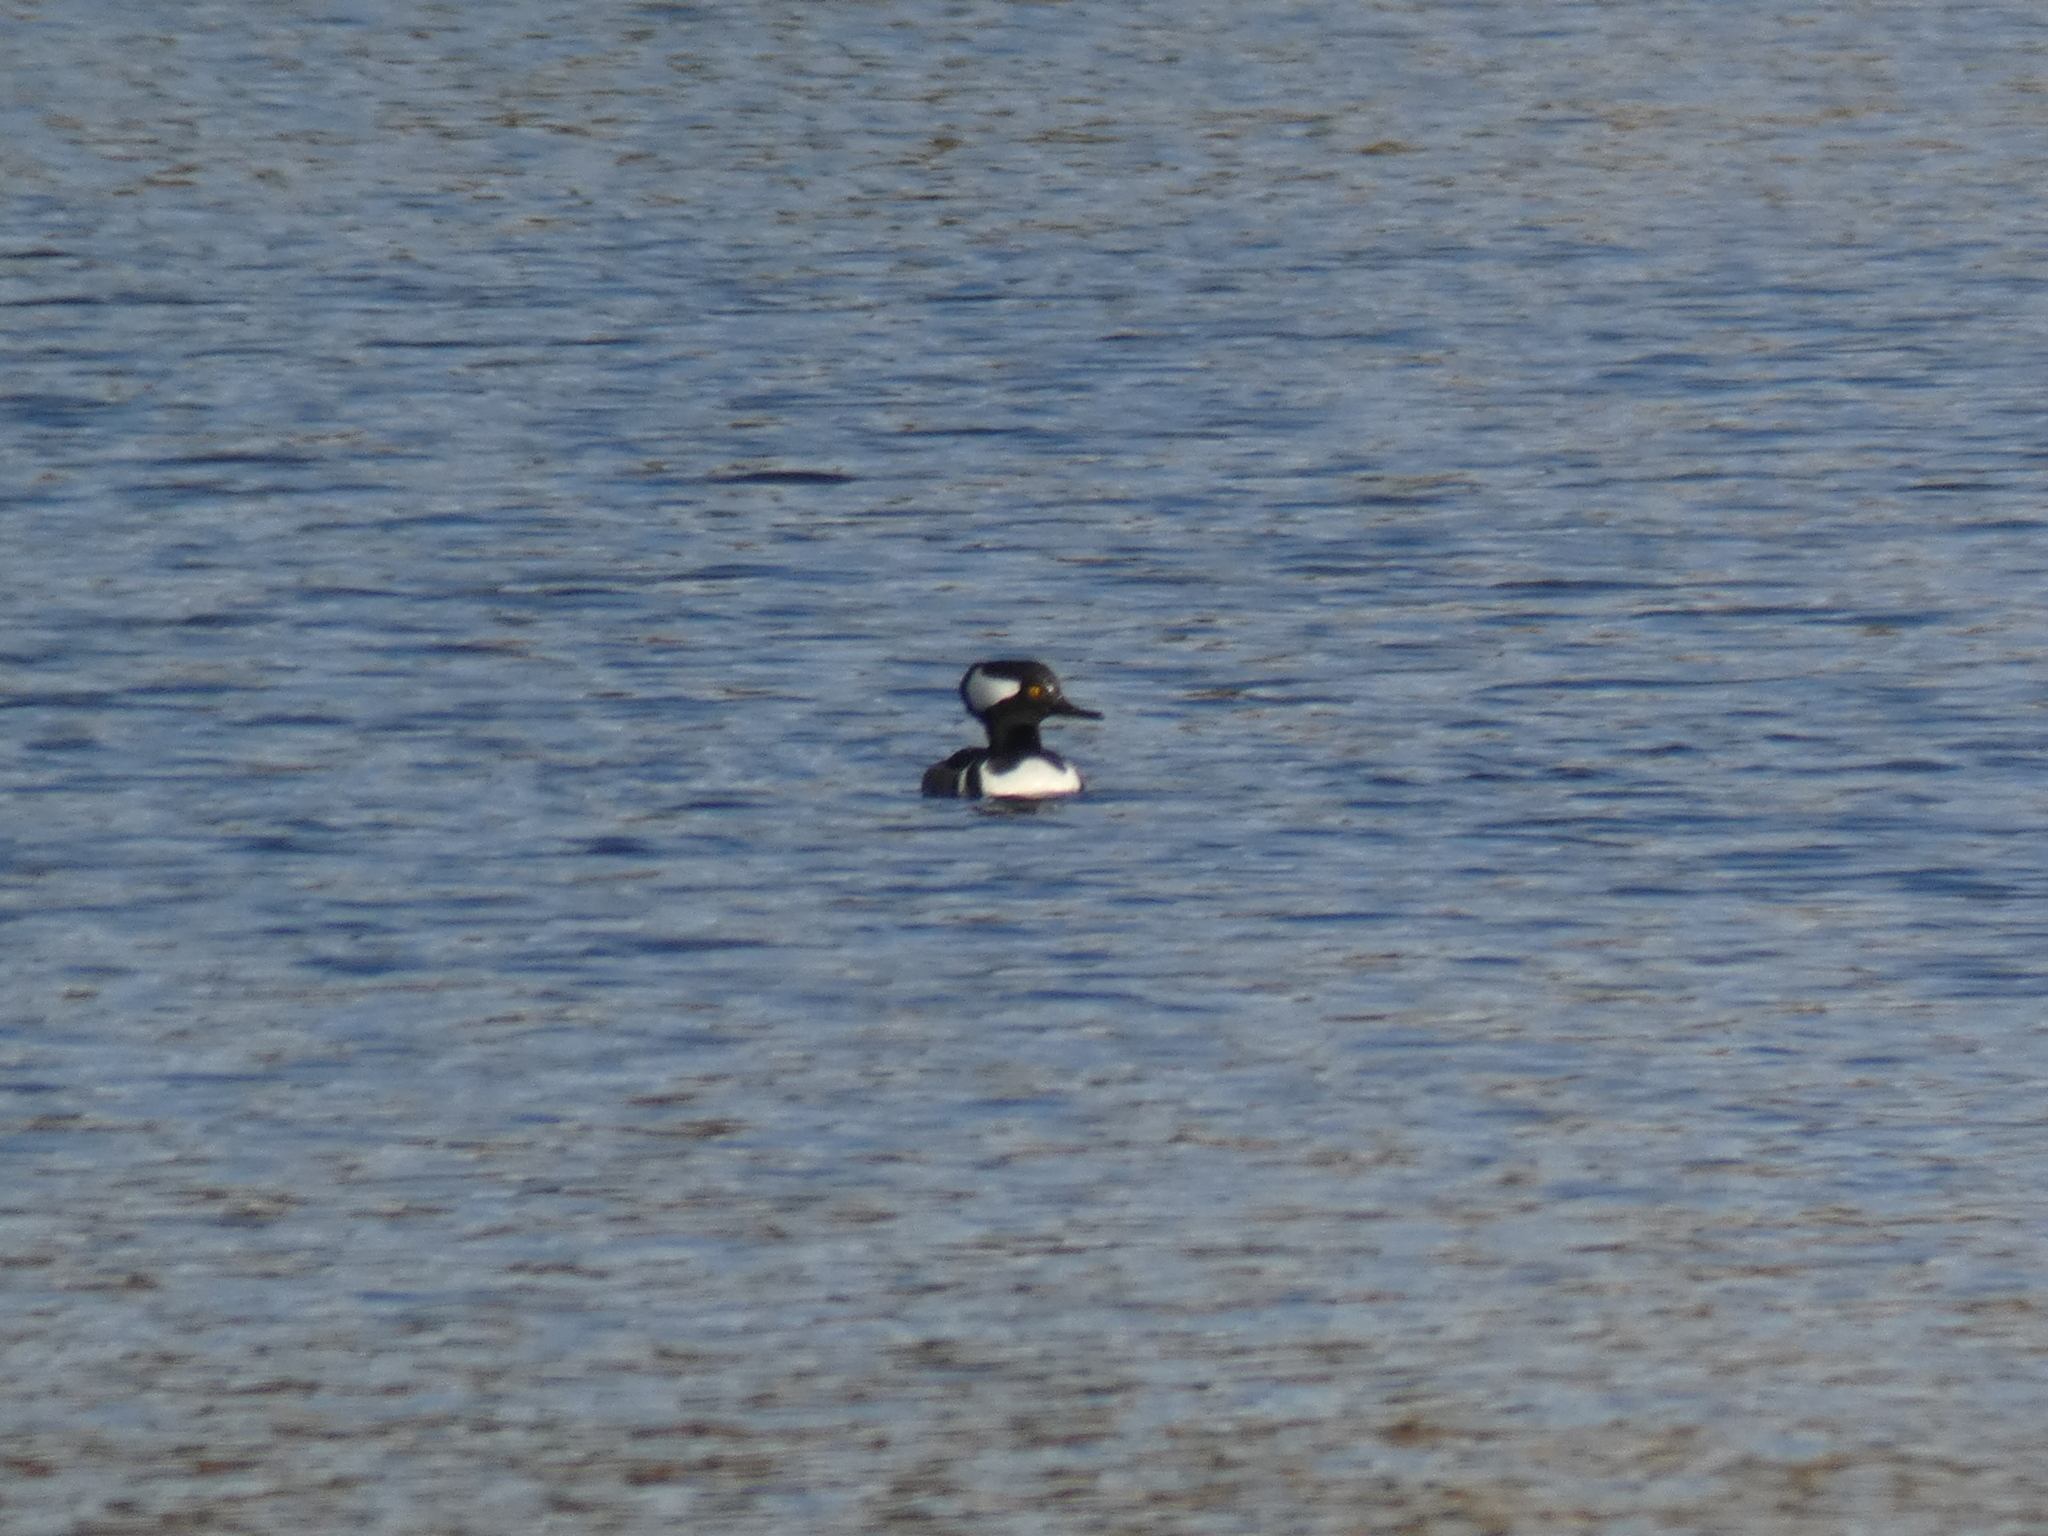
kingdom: Animalia
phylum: Chordata
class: Aves
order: Anseriformes
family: Anatidae
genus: Lophodytes
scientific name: Lophodytes cucullatus
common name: Hooded merganser
